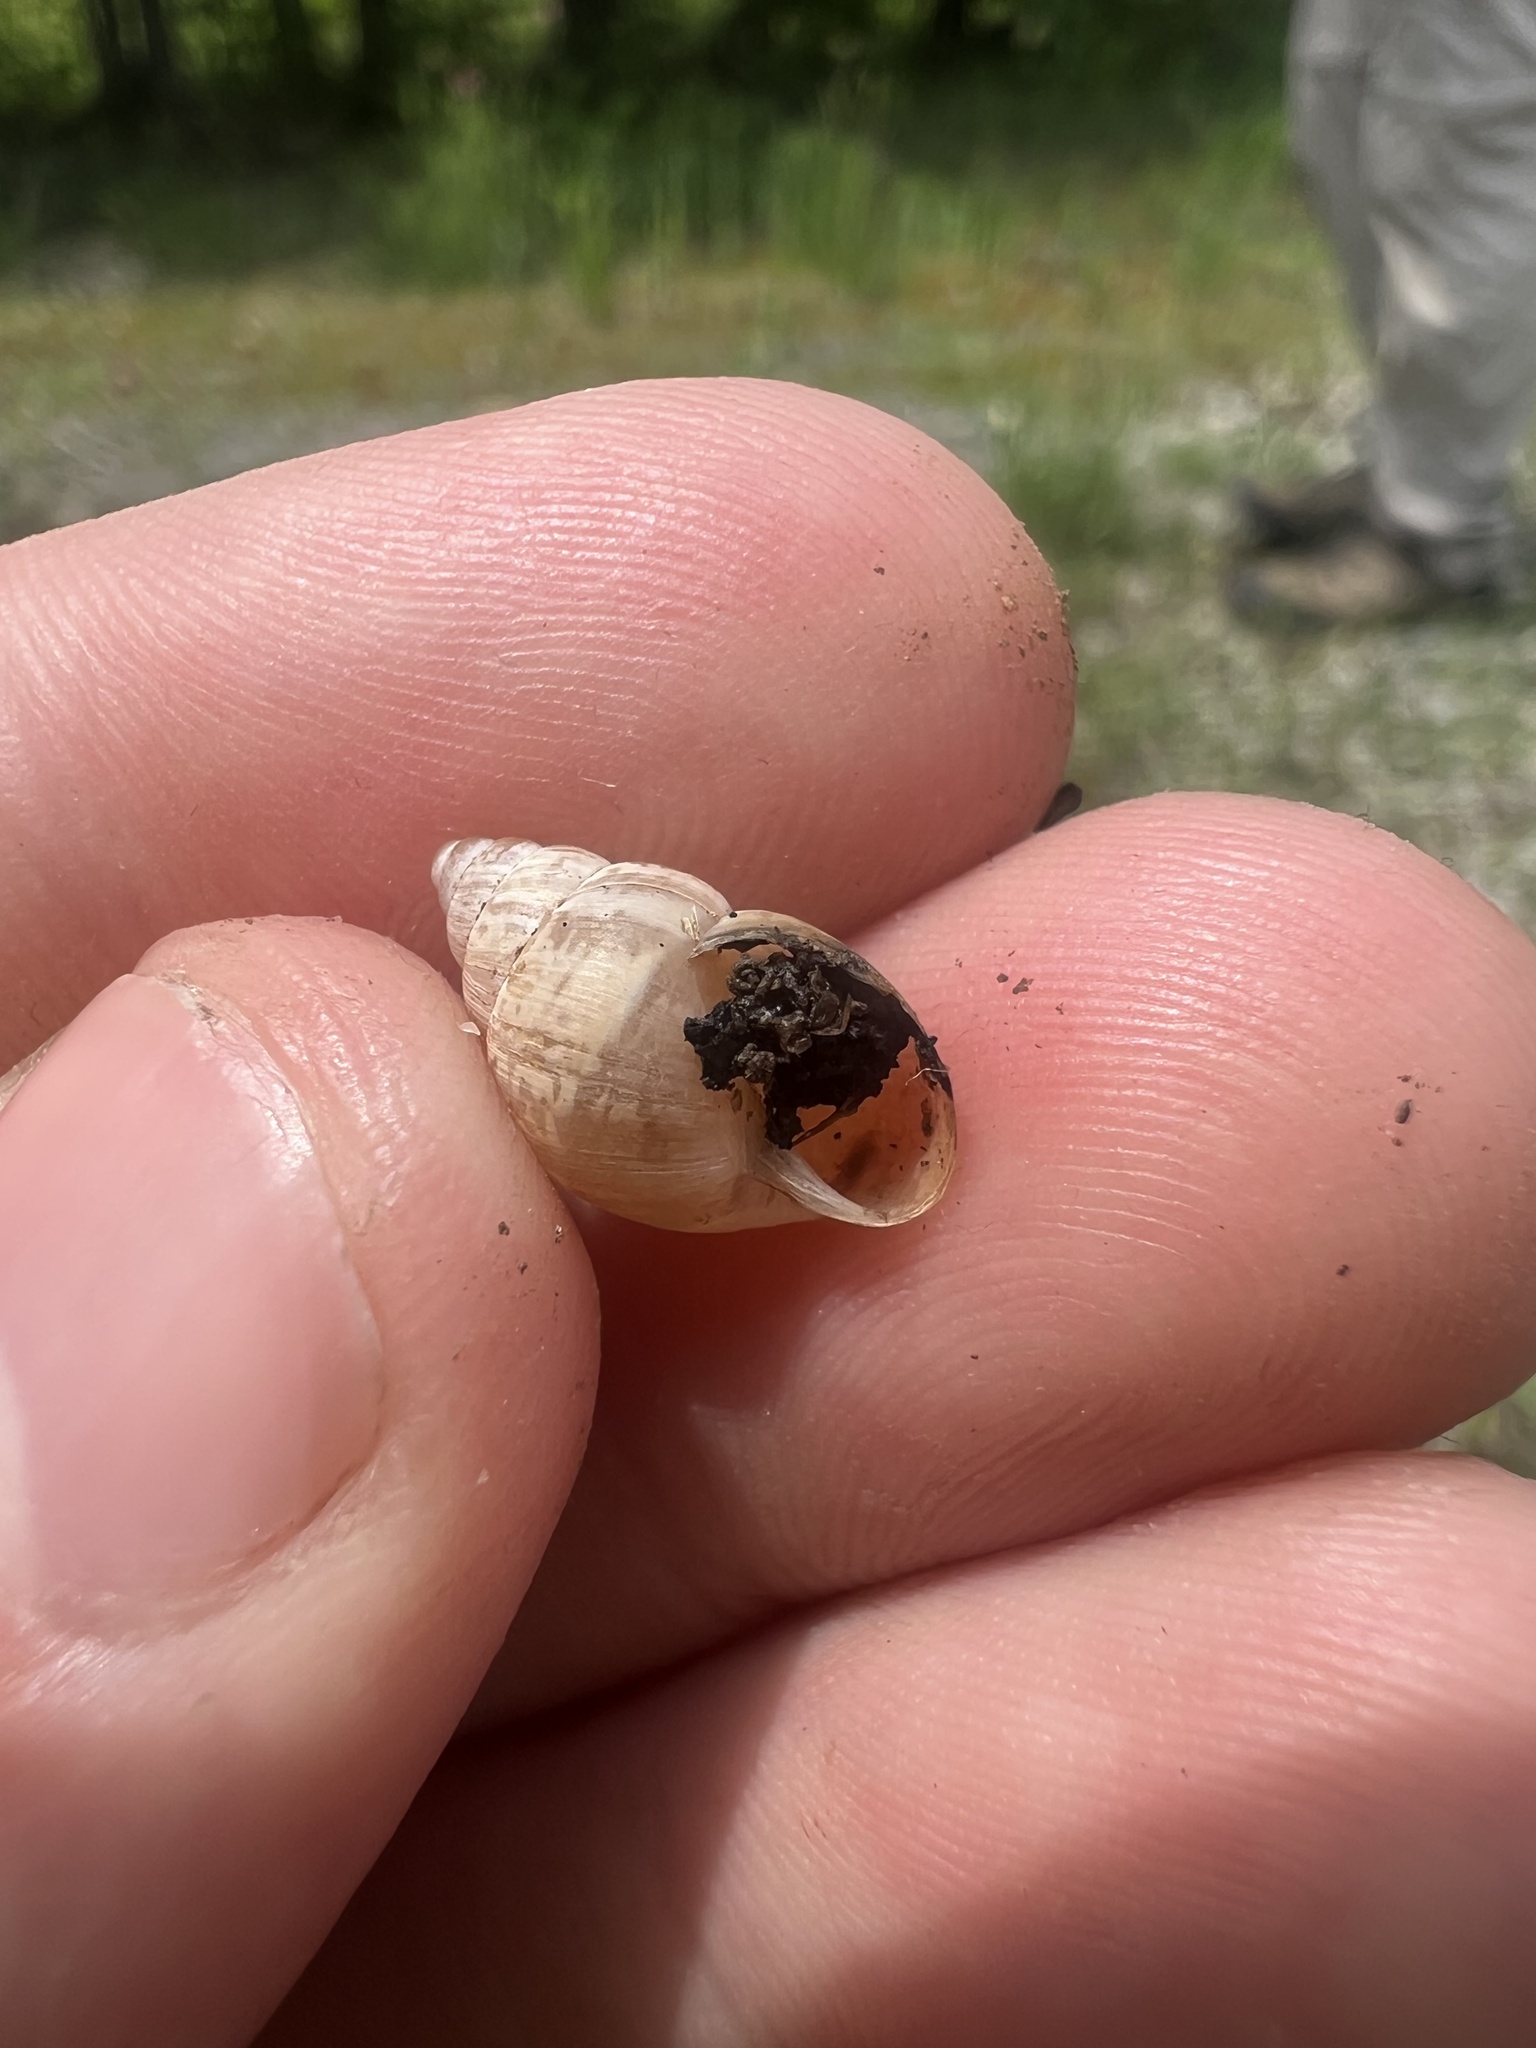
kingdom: Animalia
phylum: Mollusca
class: Gastropoda
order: Stylommatophora
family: Bulimulidae
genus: Rabdotus
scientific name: Rabdotus dealbatus
